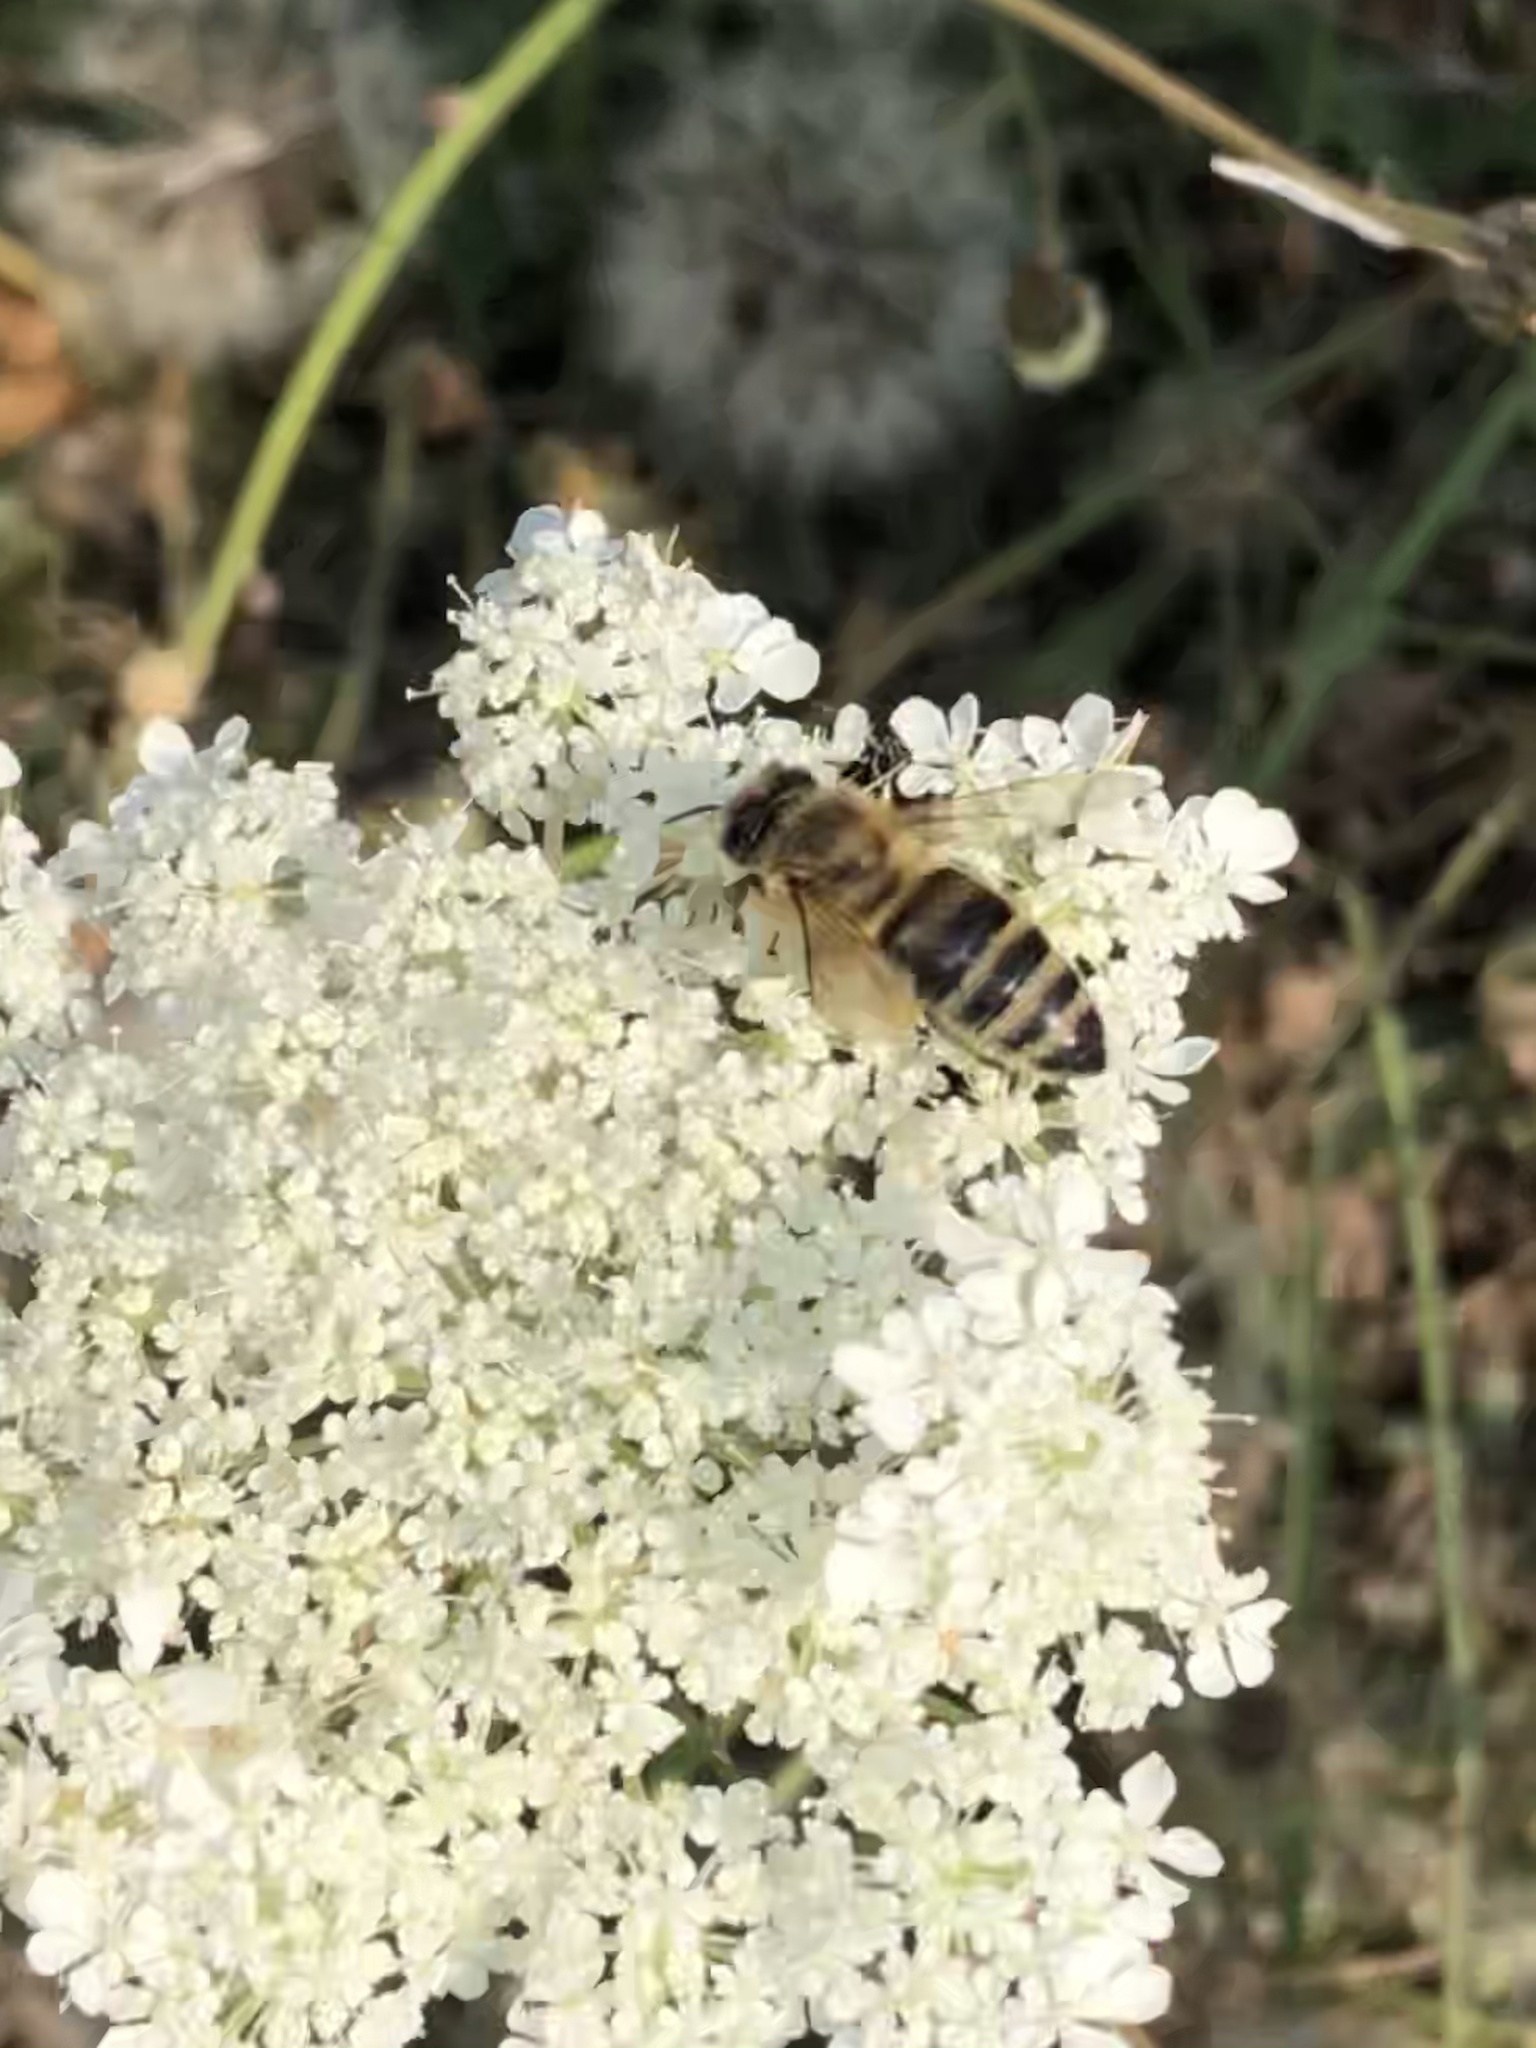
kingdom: Animalia
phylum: Arthropoda
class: Insecta
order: Hymenoptera
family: Apidae
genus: Apis
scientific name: Apis mellifera
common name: Honey bee
